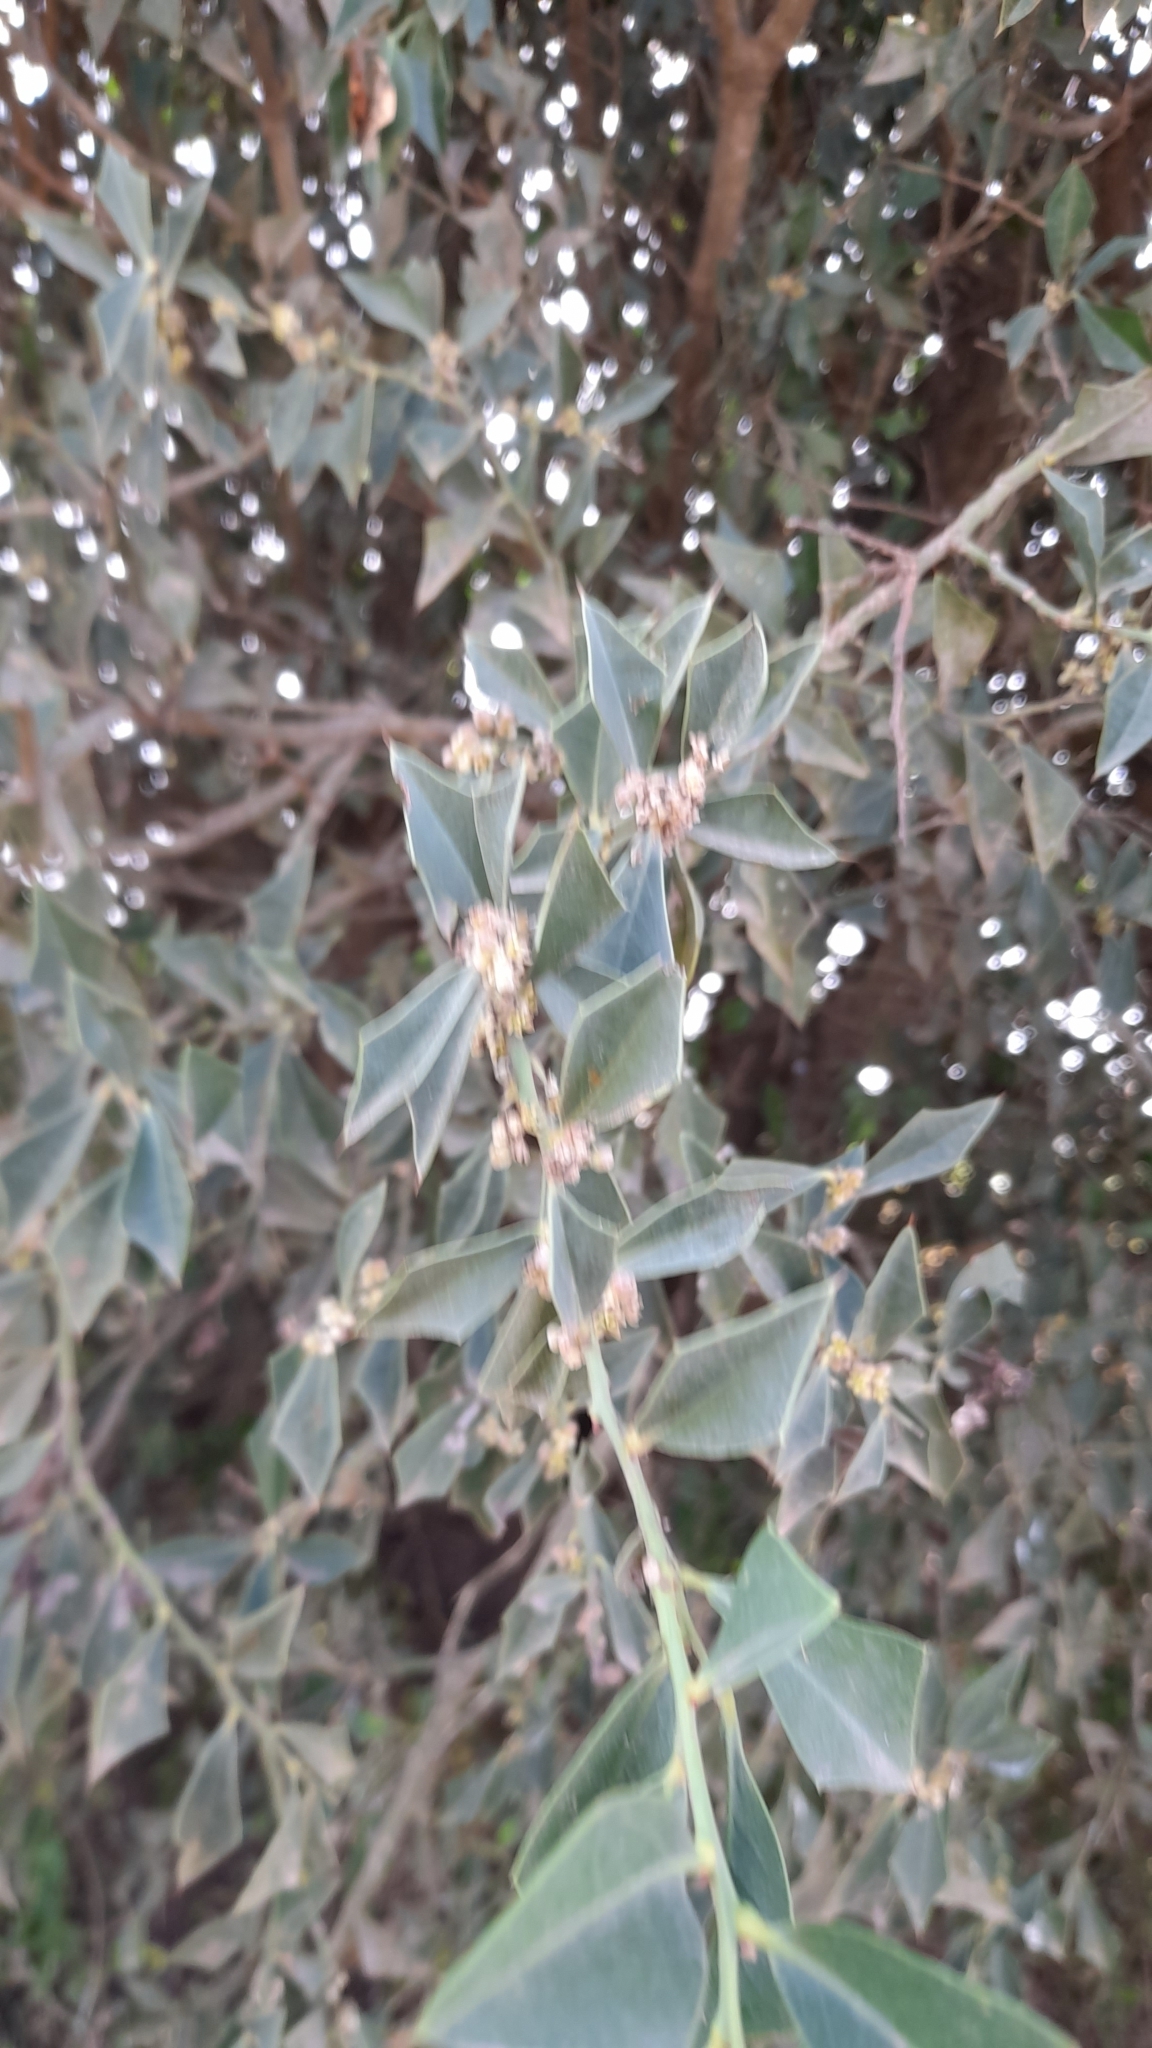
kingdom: Plantae
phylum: Tracheophyta
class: Magnoliopsida
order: Santalales
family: Cervantesiaceae
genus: Jodina
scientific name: Jodina rhombifolia
